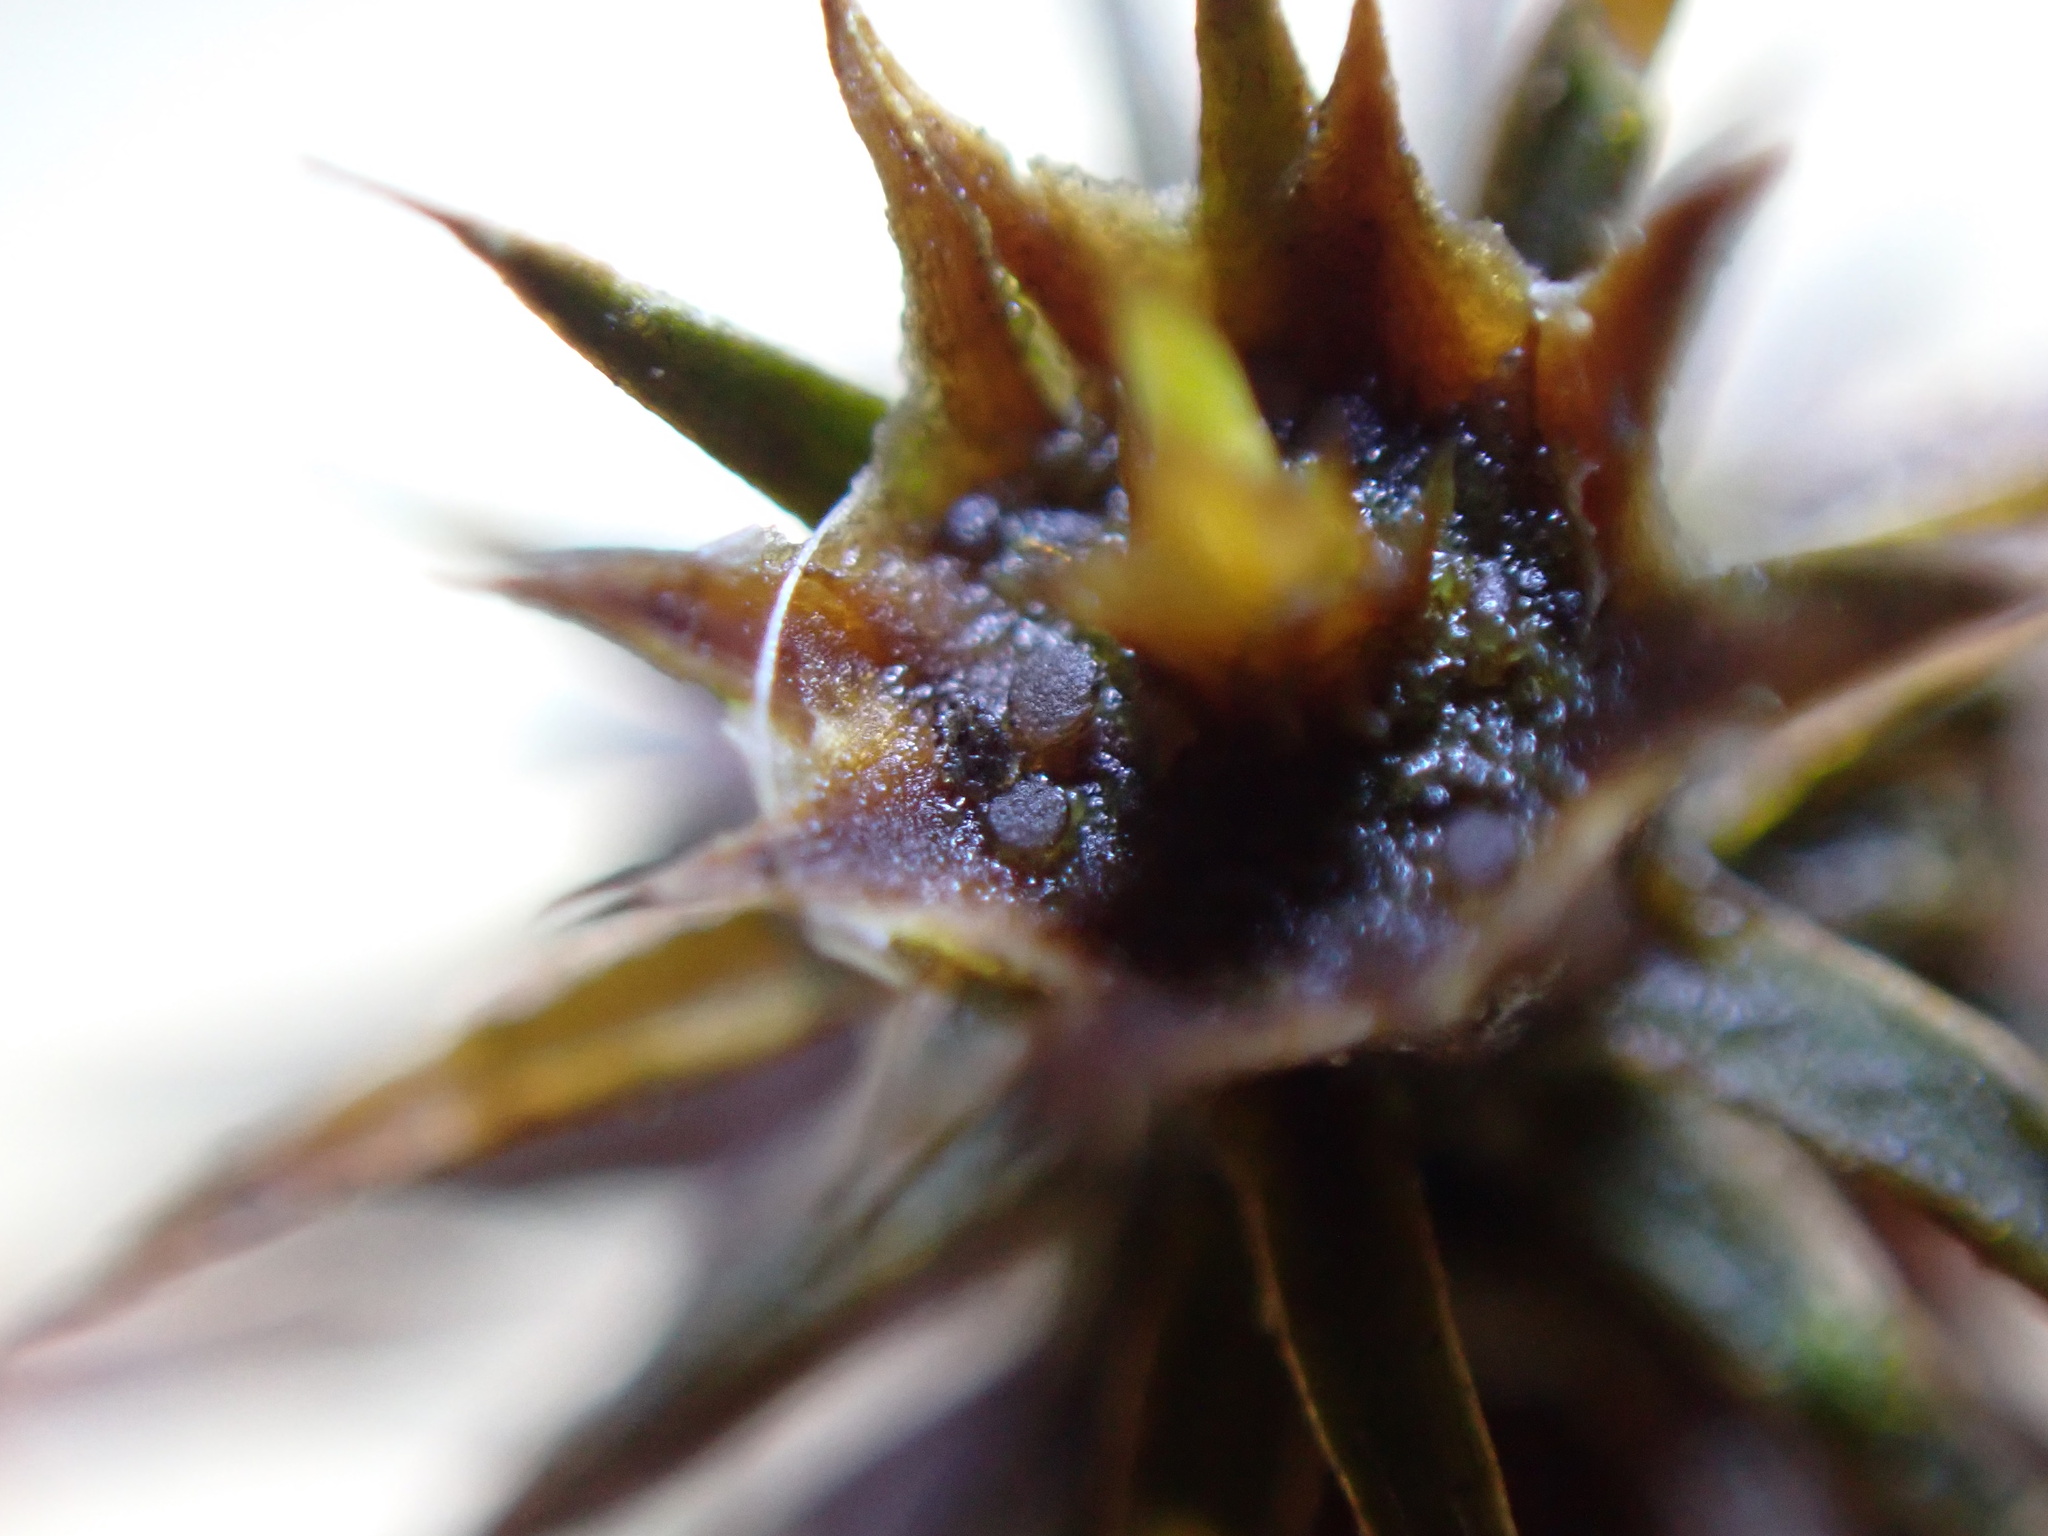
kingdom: Fungi
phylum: Ascomycota
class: Leotiomycetes
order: Helotiales
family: Helotiaceae
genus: Durella
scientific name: Durella polytrichina
